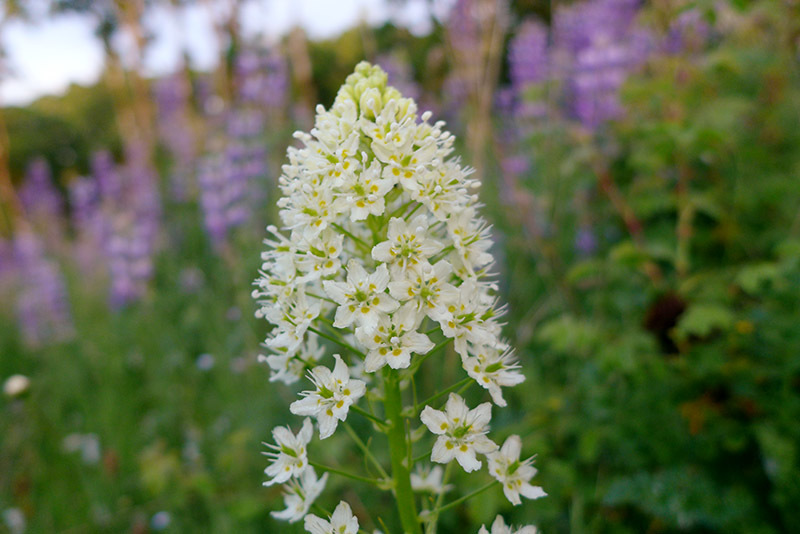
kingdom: Plantae
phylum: Tracheophyta
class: Liliopsida
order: Liliales
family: Melanthiaceae
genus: Toxicoscordion
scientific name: Toxicoscordion venenosum
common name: Meadow death camas
